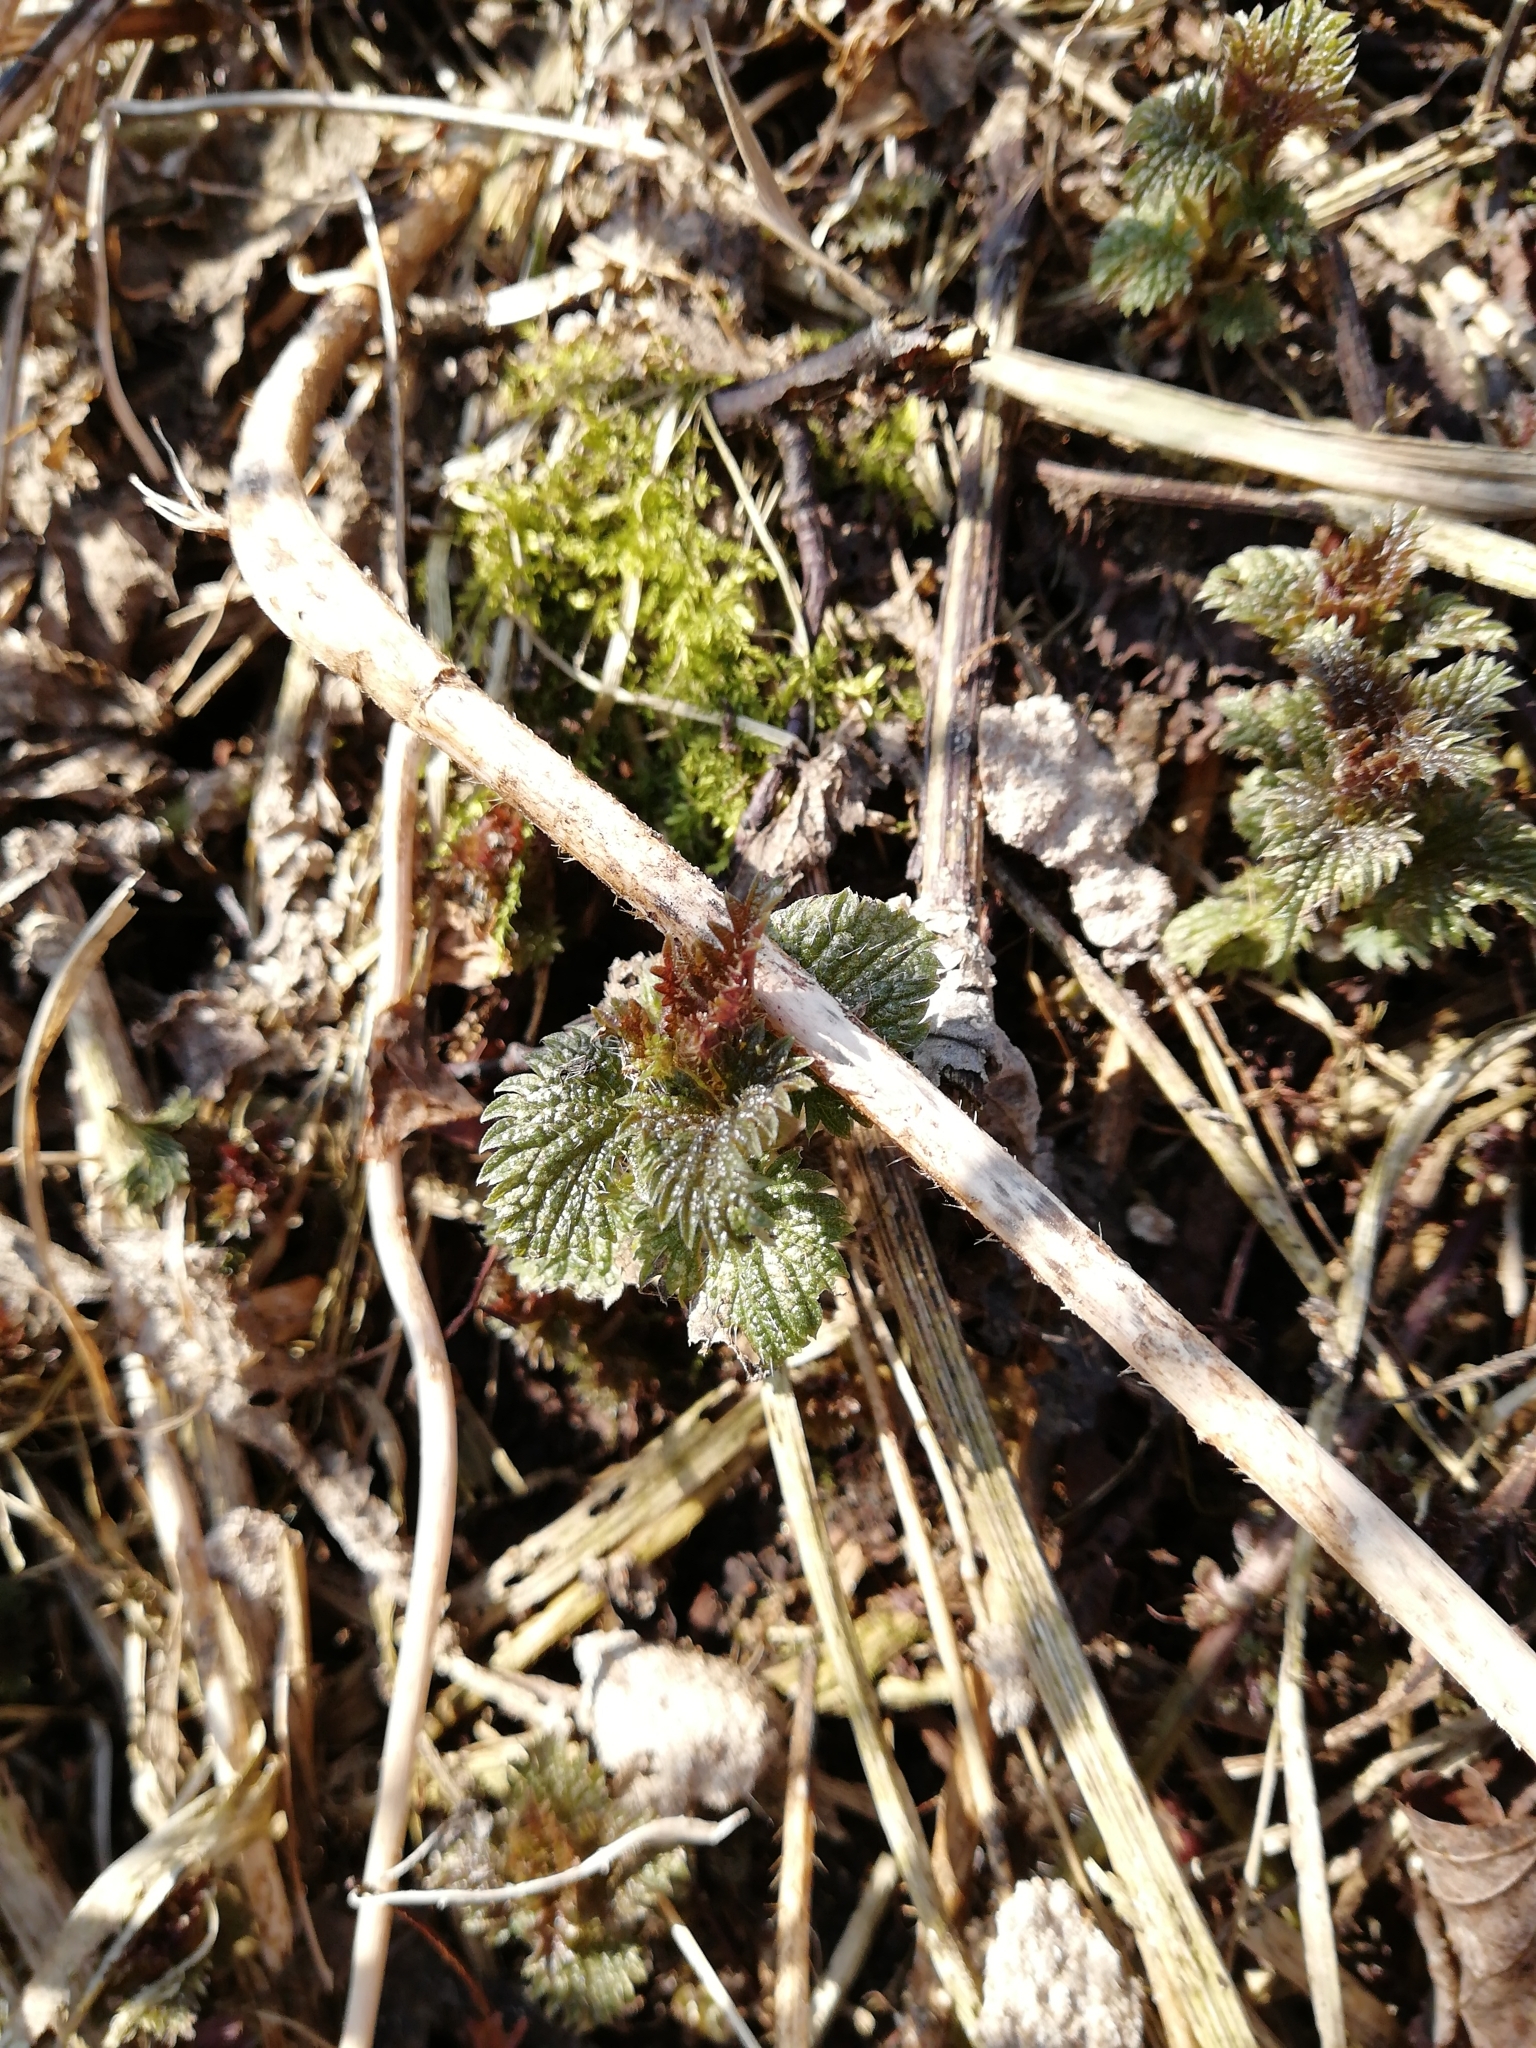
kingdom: Plantae
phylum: Tracheophyta
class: Magnoliopsida
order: Rosales
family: Urticaceae
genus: Urtica
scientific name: Urtica dioica
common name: Common nettle
